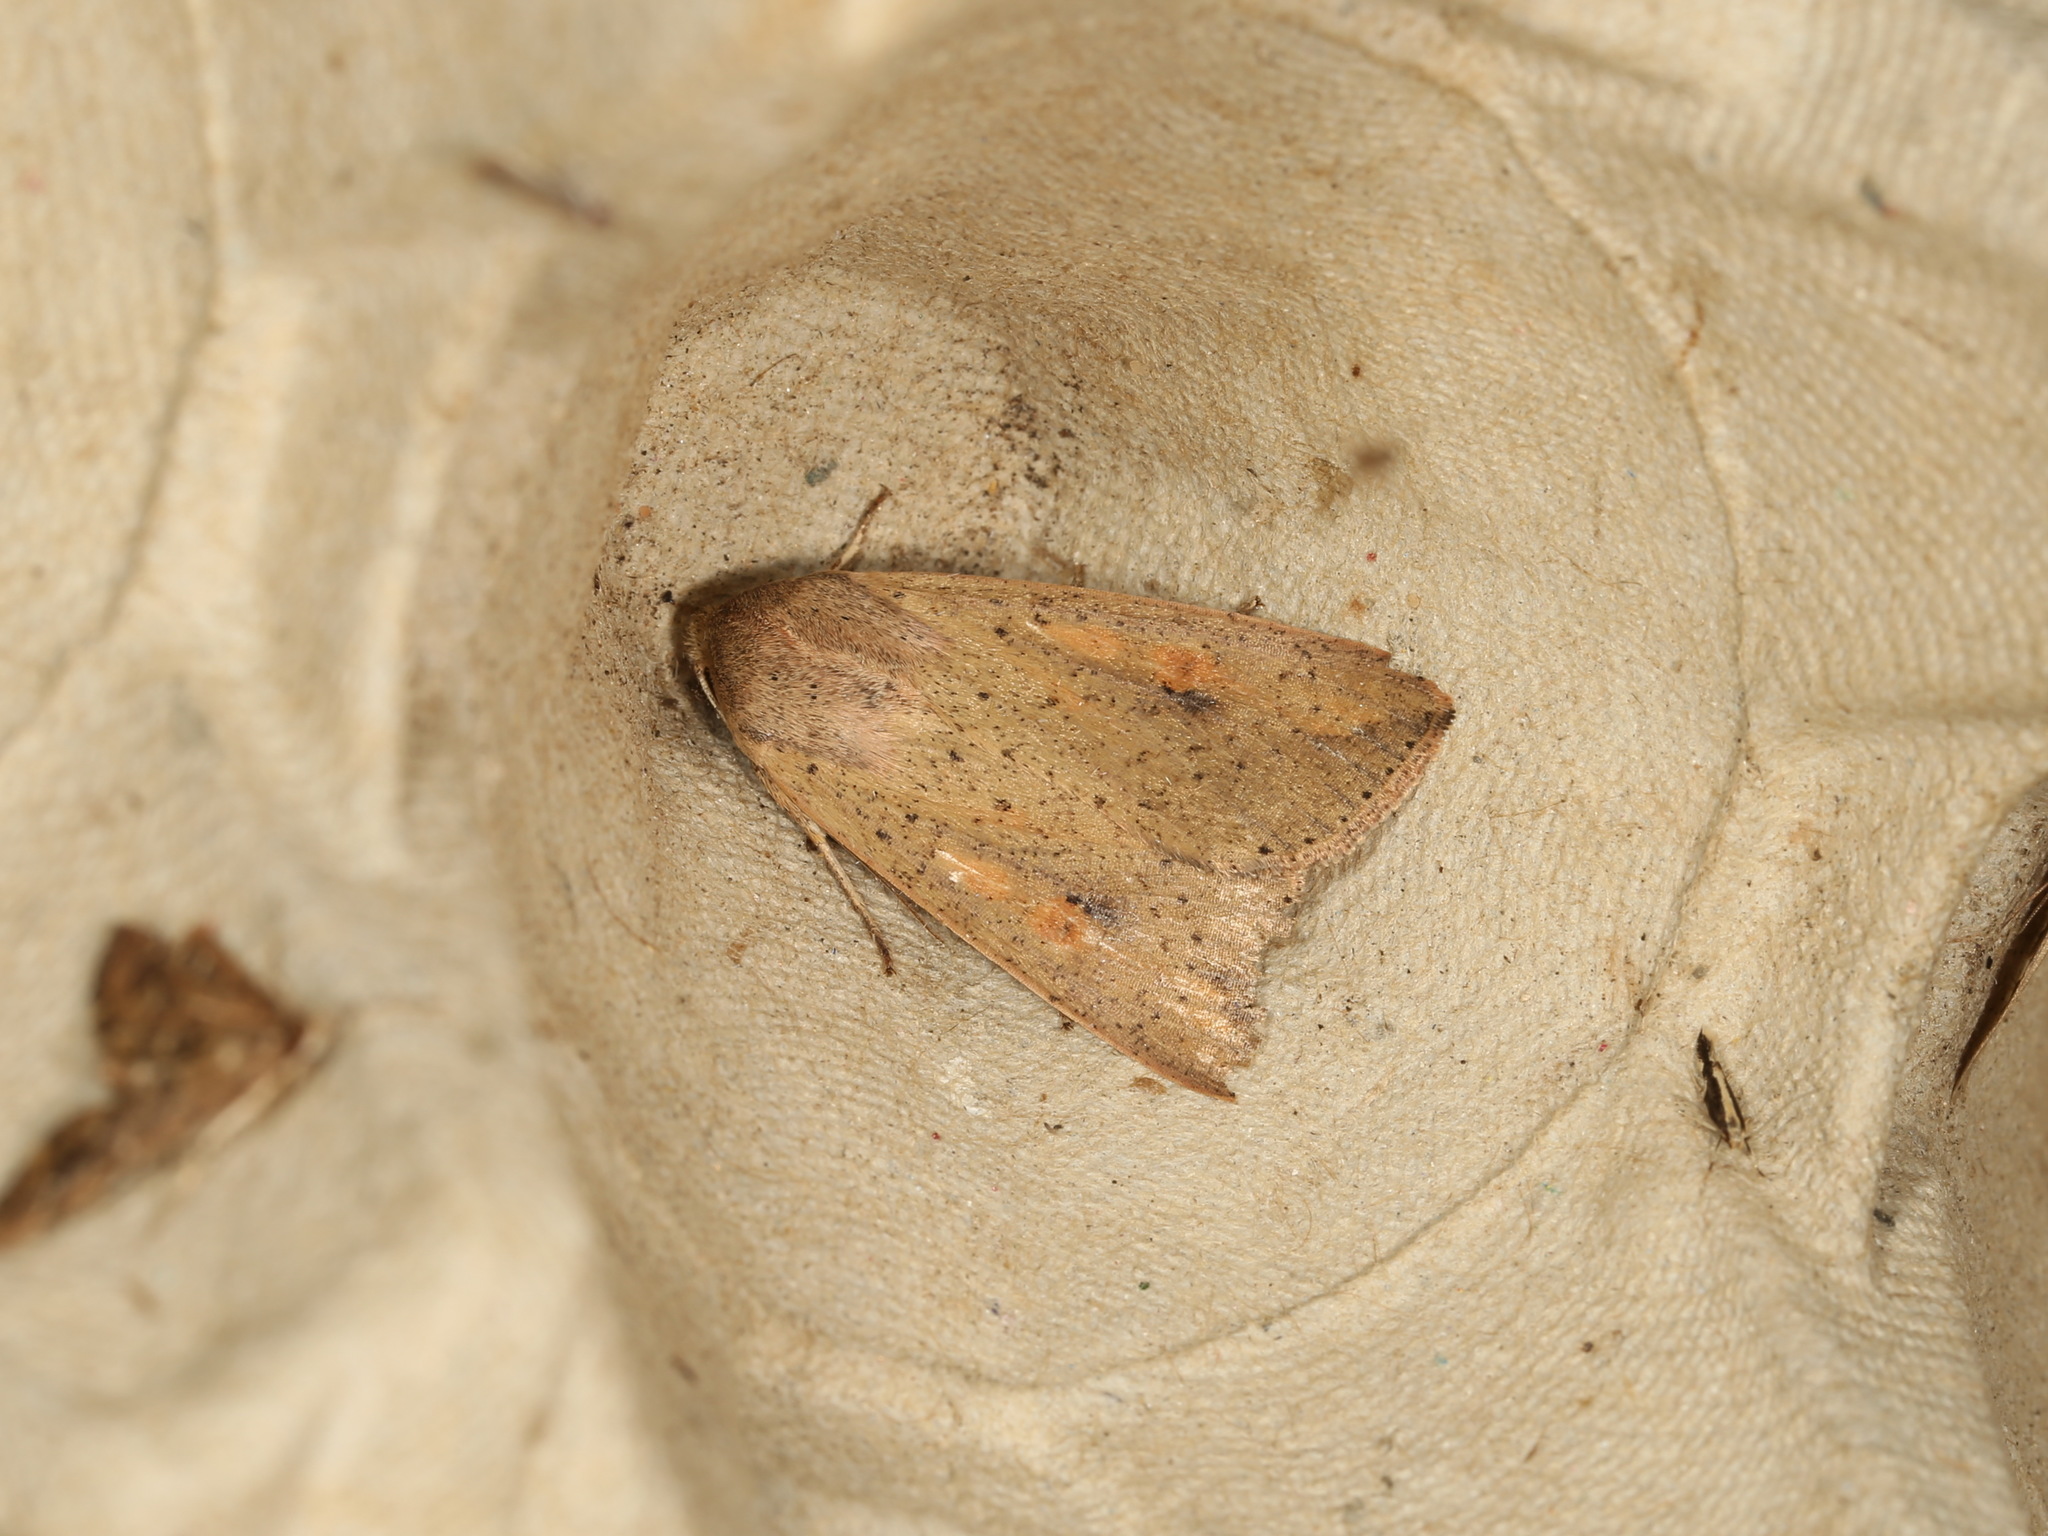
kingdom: Animalia
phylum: Arthropoda
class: Insecta
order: Lepidoptera
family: Noctuidae
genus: Mythimna
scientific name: Mythimna convecta
